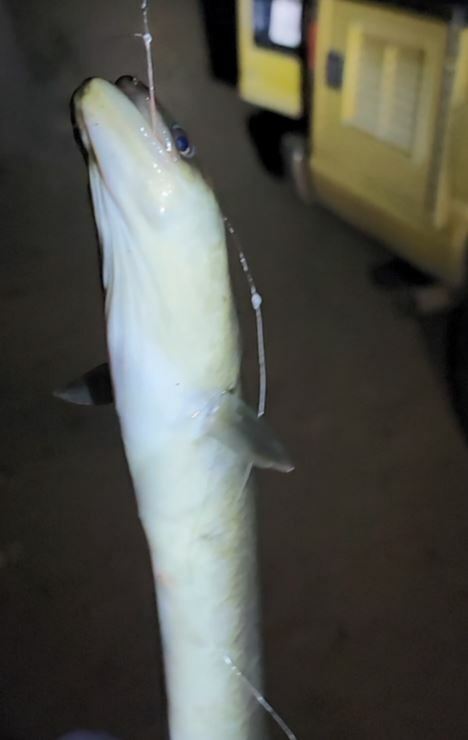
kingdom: Animalia
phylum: Chordata
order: Anguilliformes
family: Anguillidae
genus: Anguilla
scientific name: Anguilla rostrata
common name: American eel
